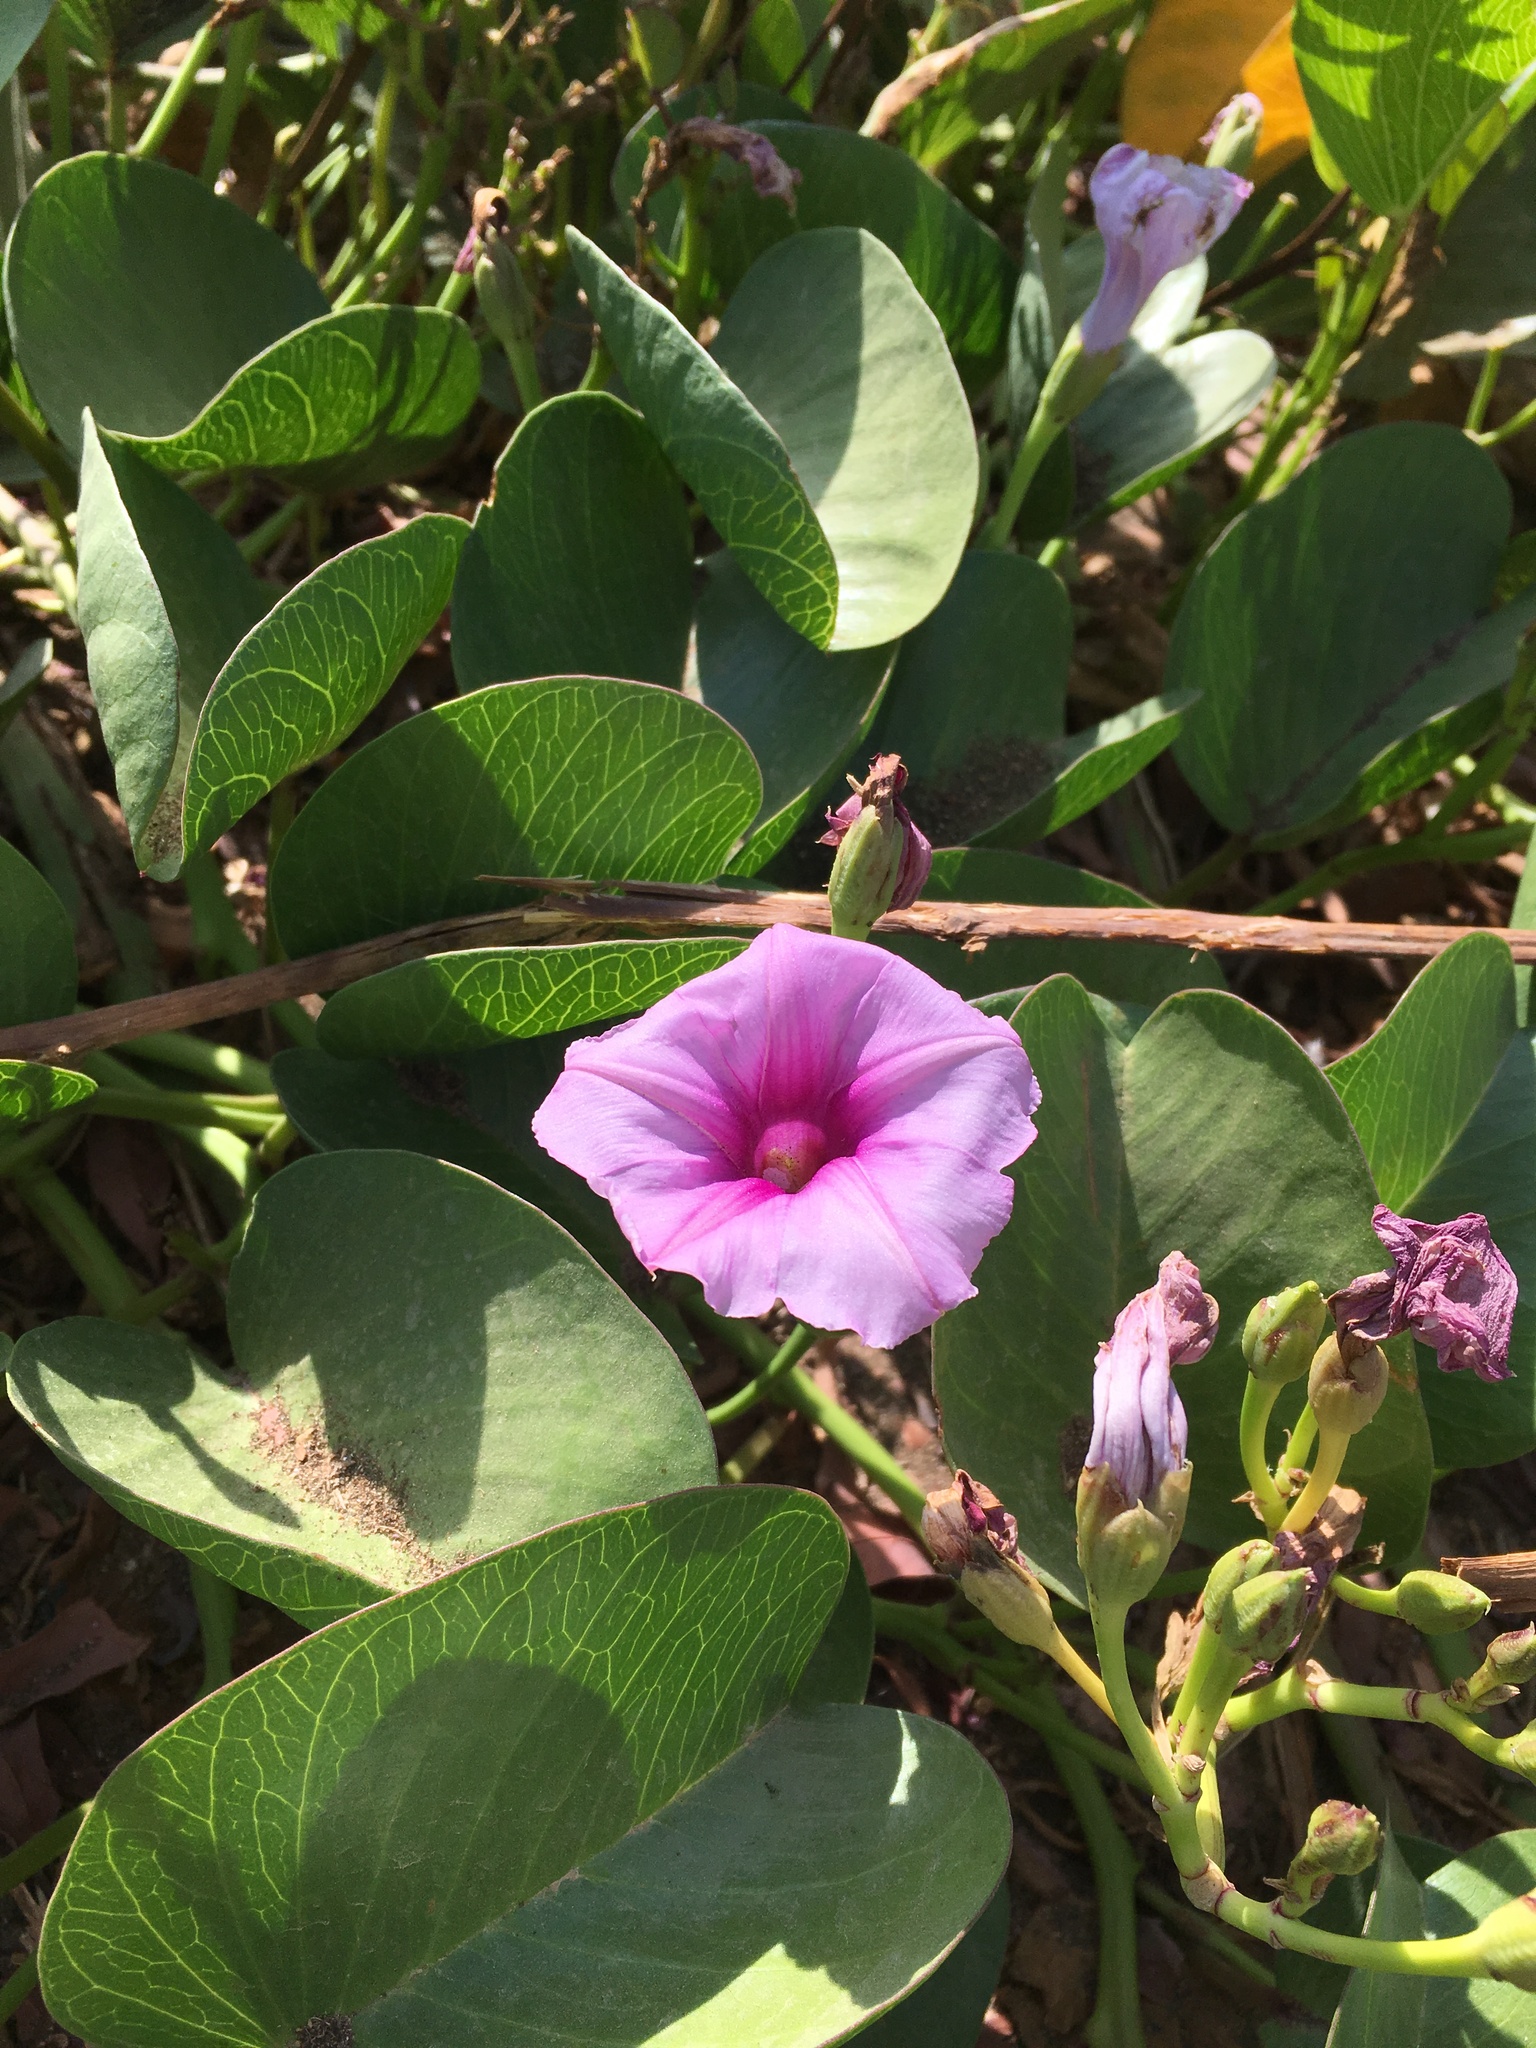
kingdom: Plantae
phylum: Tracheophyta
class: Magnoliopsida
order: Solanales
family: Convolvulaceae
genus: Ipomoea
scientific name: Ipomoea pes-caprae
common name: Beach morning glory
